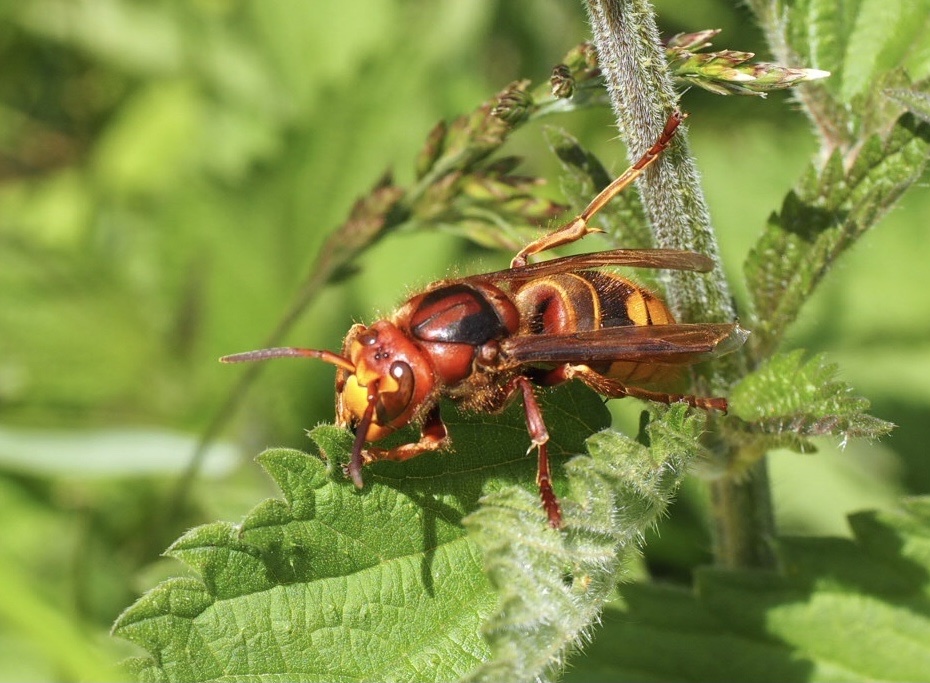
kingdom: Animalia
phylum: Arthropoda
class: Insecta
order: Hymenoptera
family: Vespidae
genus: Vespa
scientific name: Vespa crabro
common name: Hornet
